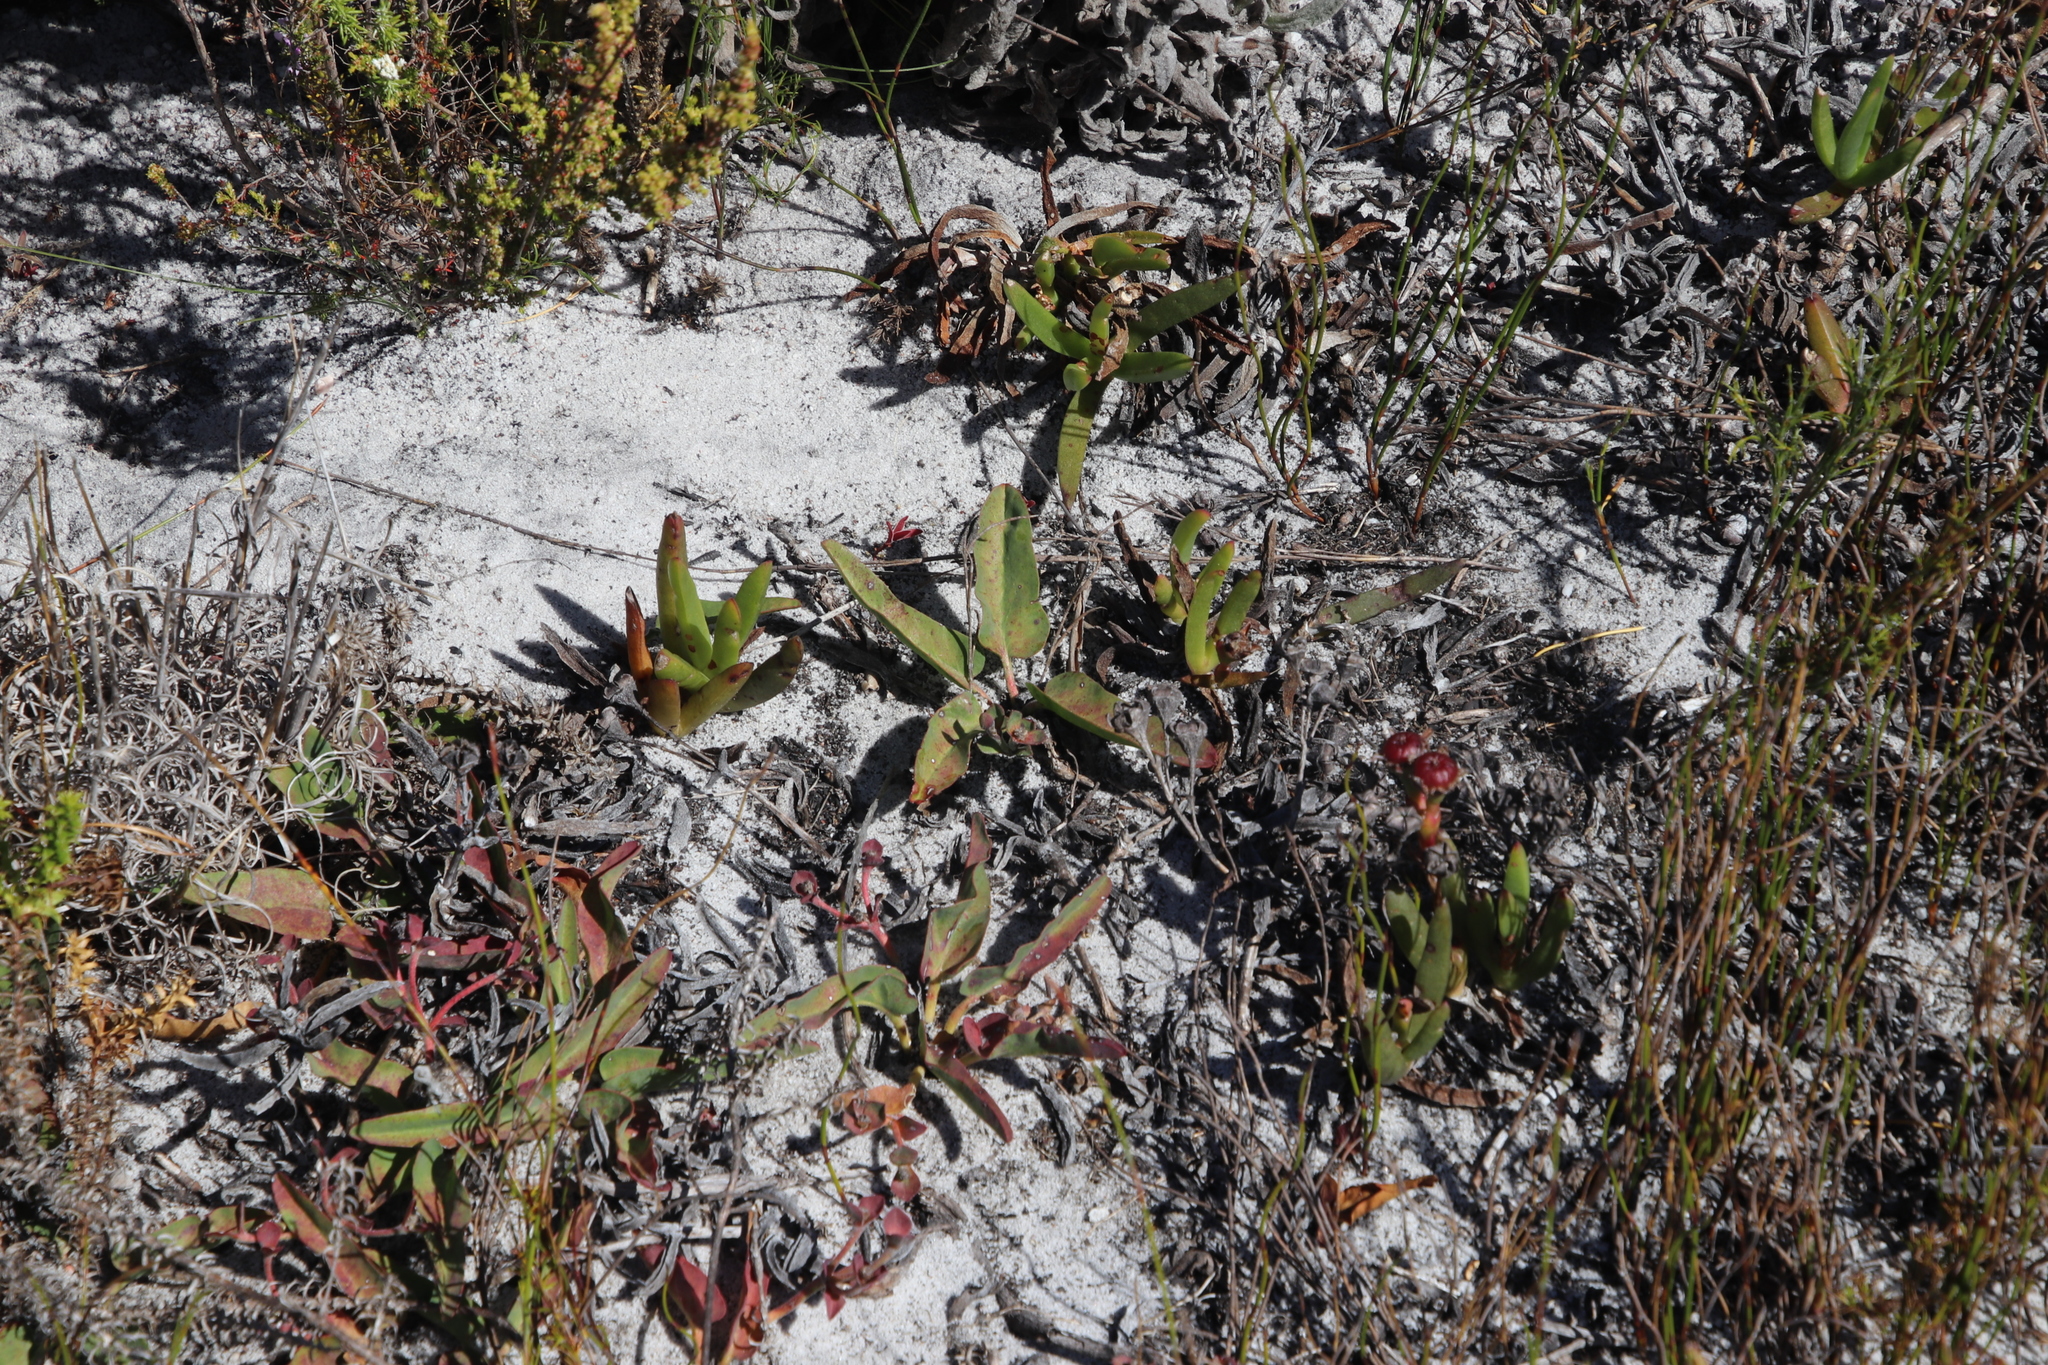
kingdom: Plantae
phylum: Tracheophyta
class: Magnoliopsida
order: Malpighiales
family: Euphorbiaceae
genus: Euphorbia
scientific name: Euphorbia tuberosa
